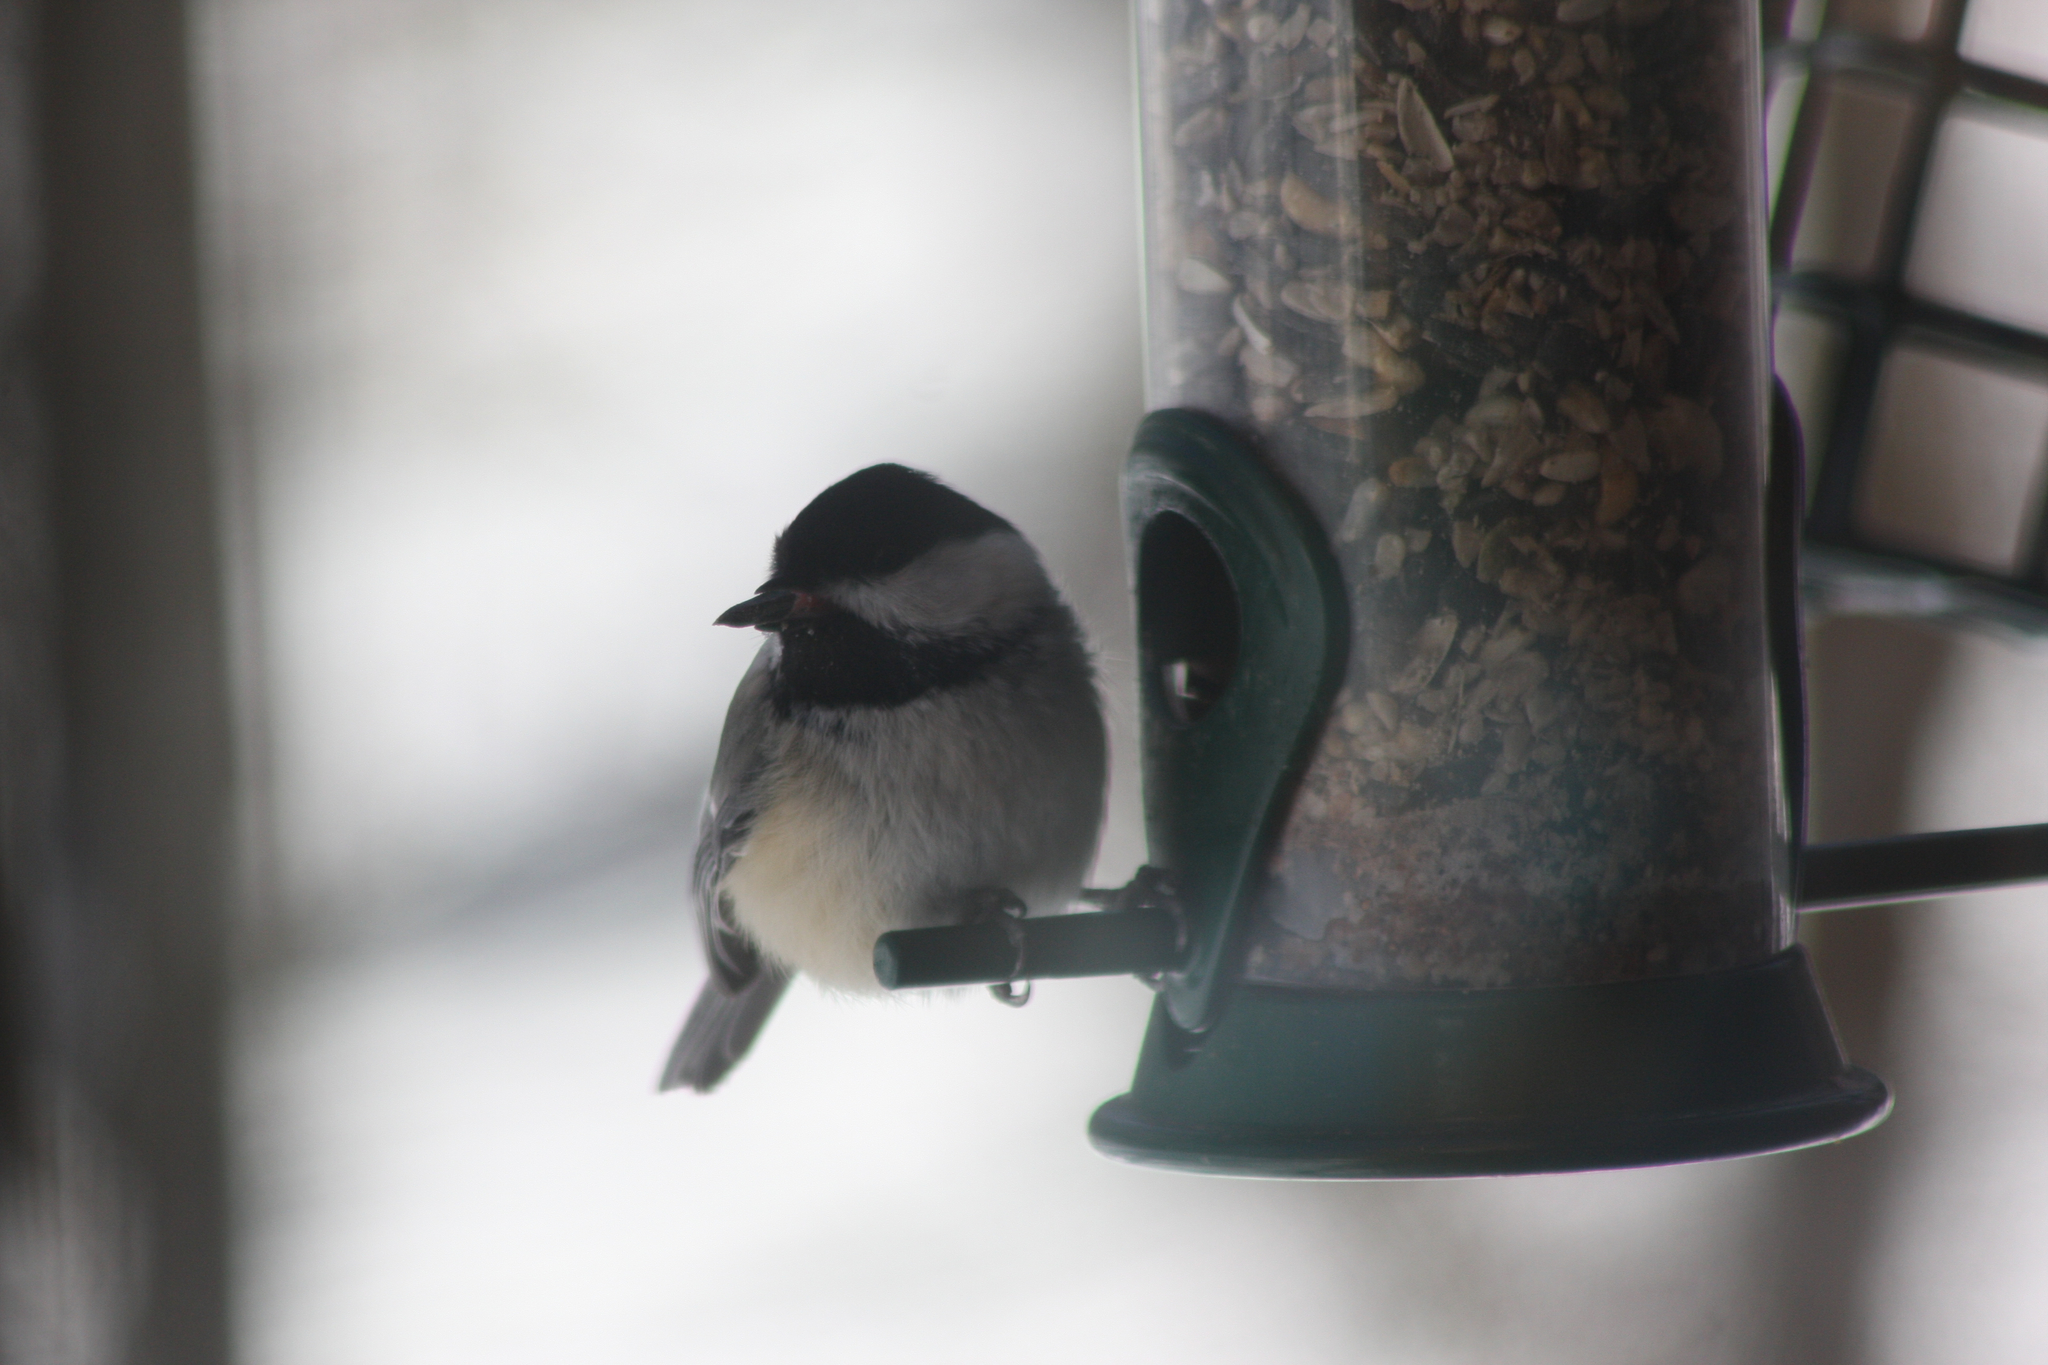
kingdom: Animalia
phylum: Chordata
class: Aves
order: Passeriformes
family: Paridae
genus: Poecile
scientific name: Poecile atricapillus
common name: Black-capped chickadee
